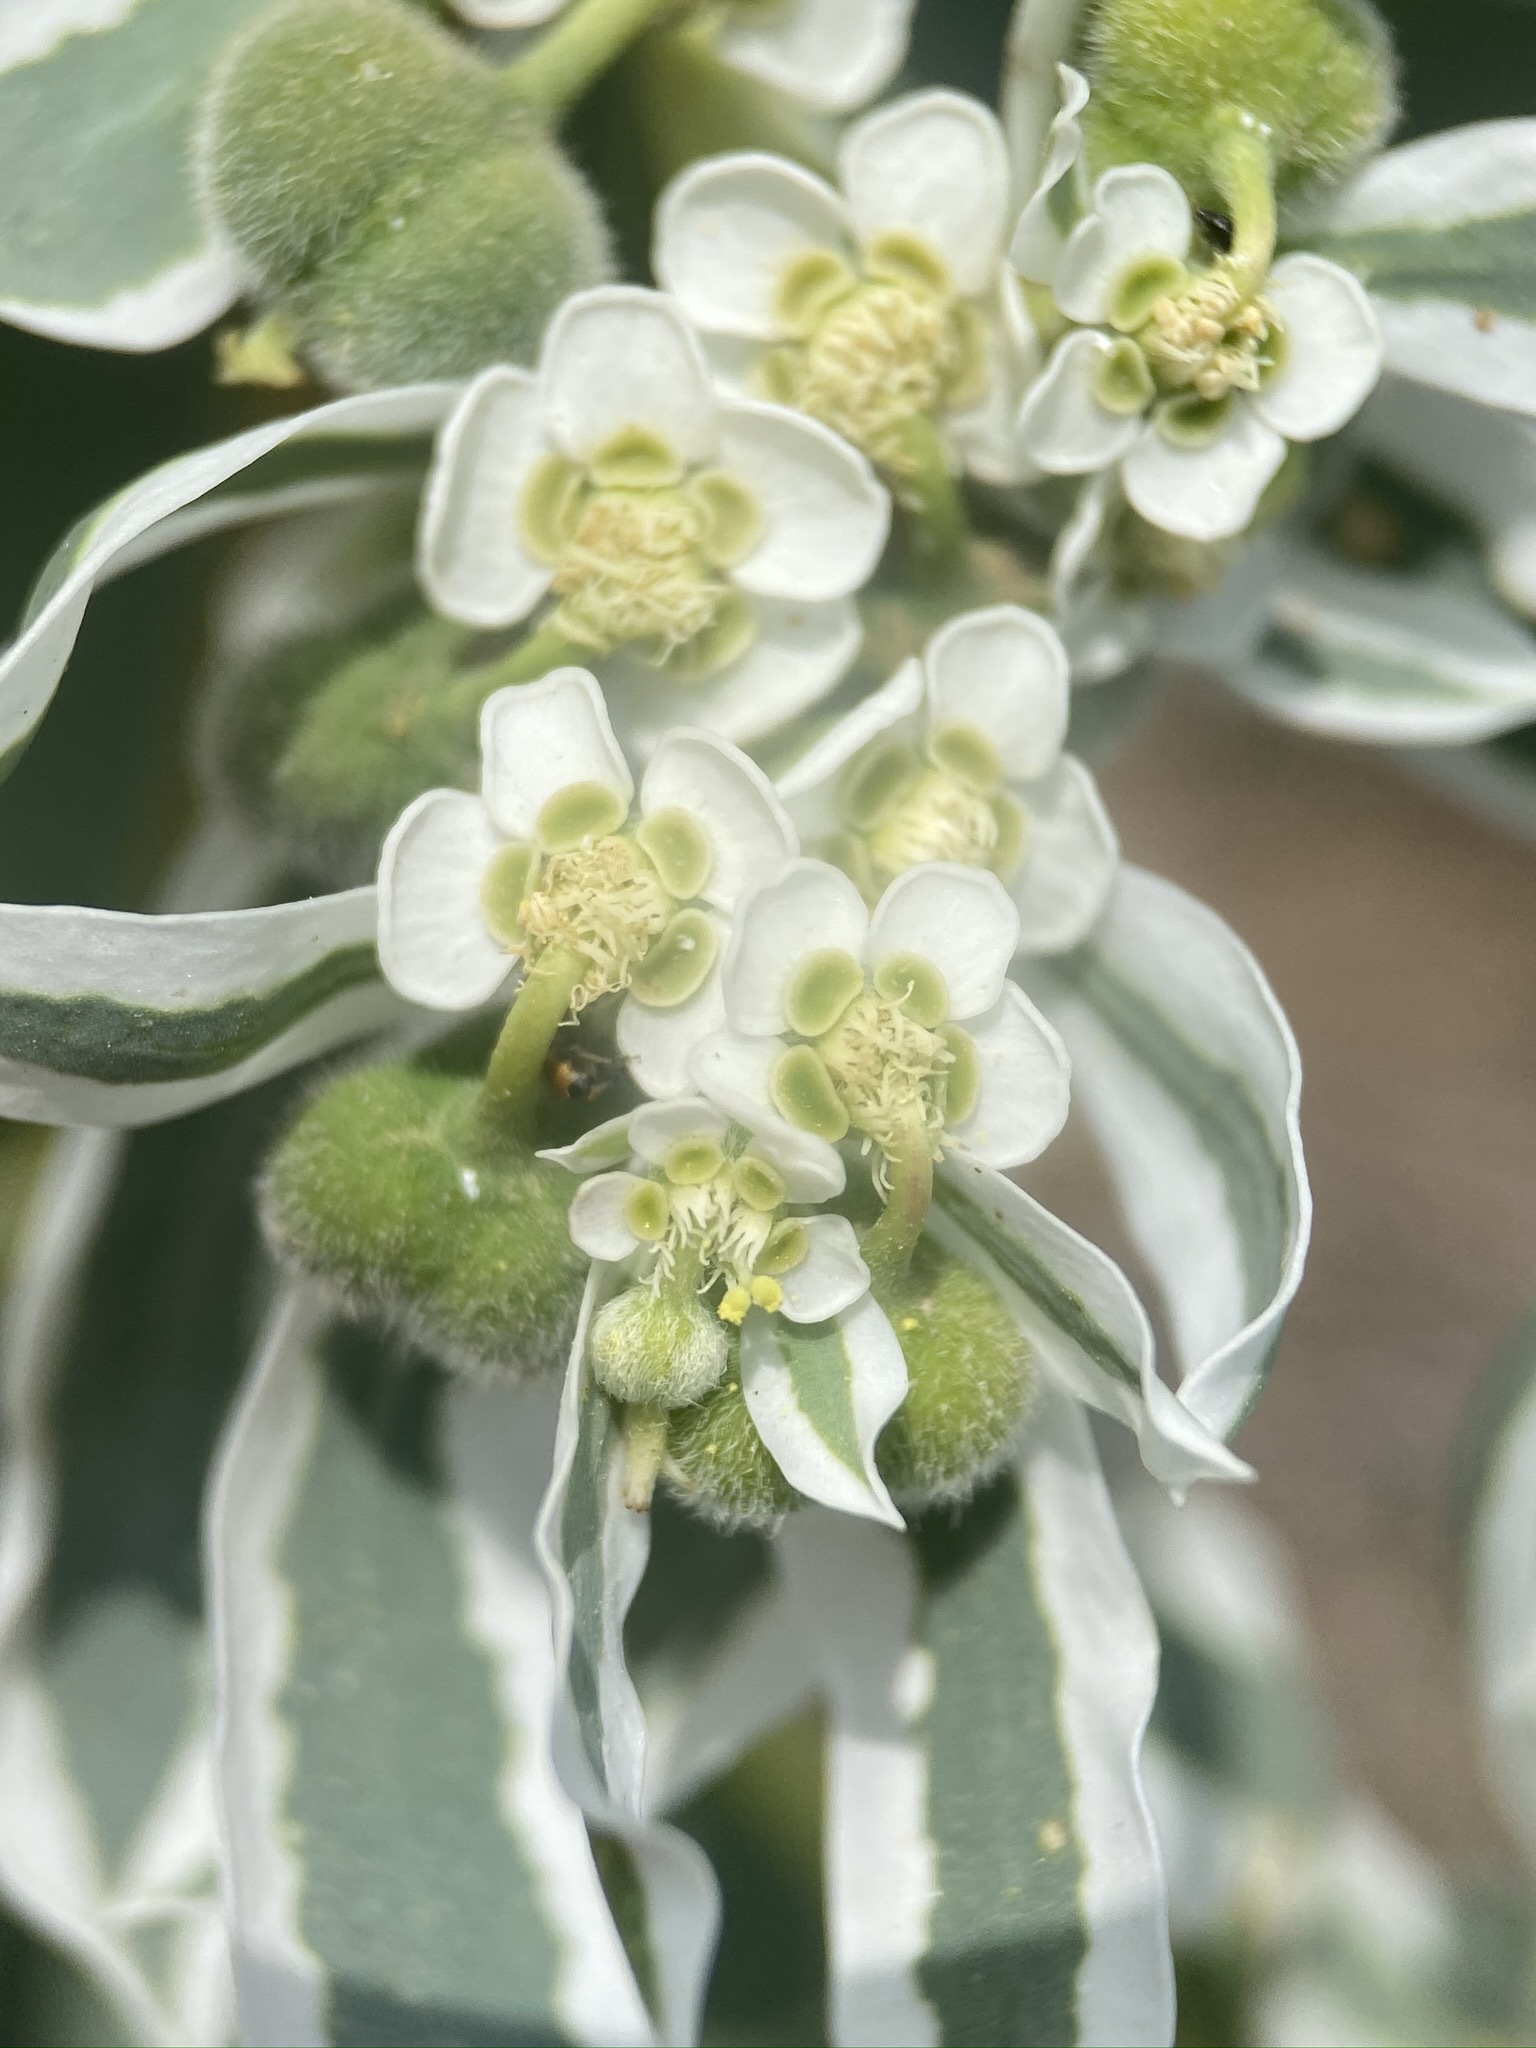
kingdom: Plantae
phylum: Tracheophyta
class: Magnoliopsida
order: Malpighiales
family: Euphorbiaceae
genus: Euphorbia
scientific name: Euphorbia marginata
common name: Ghostweed
